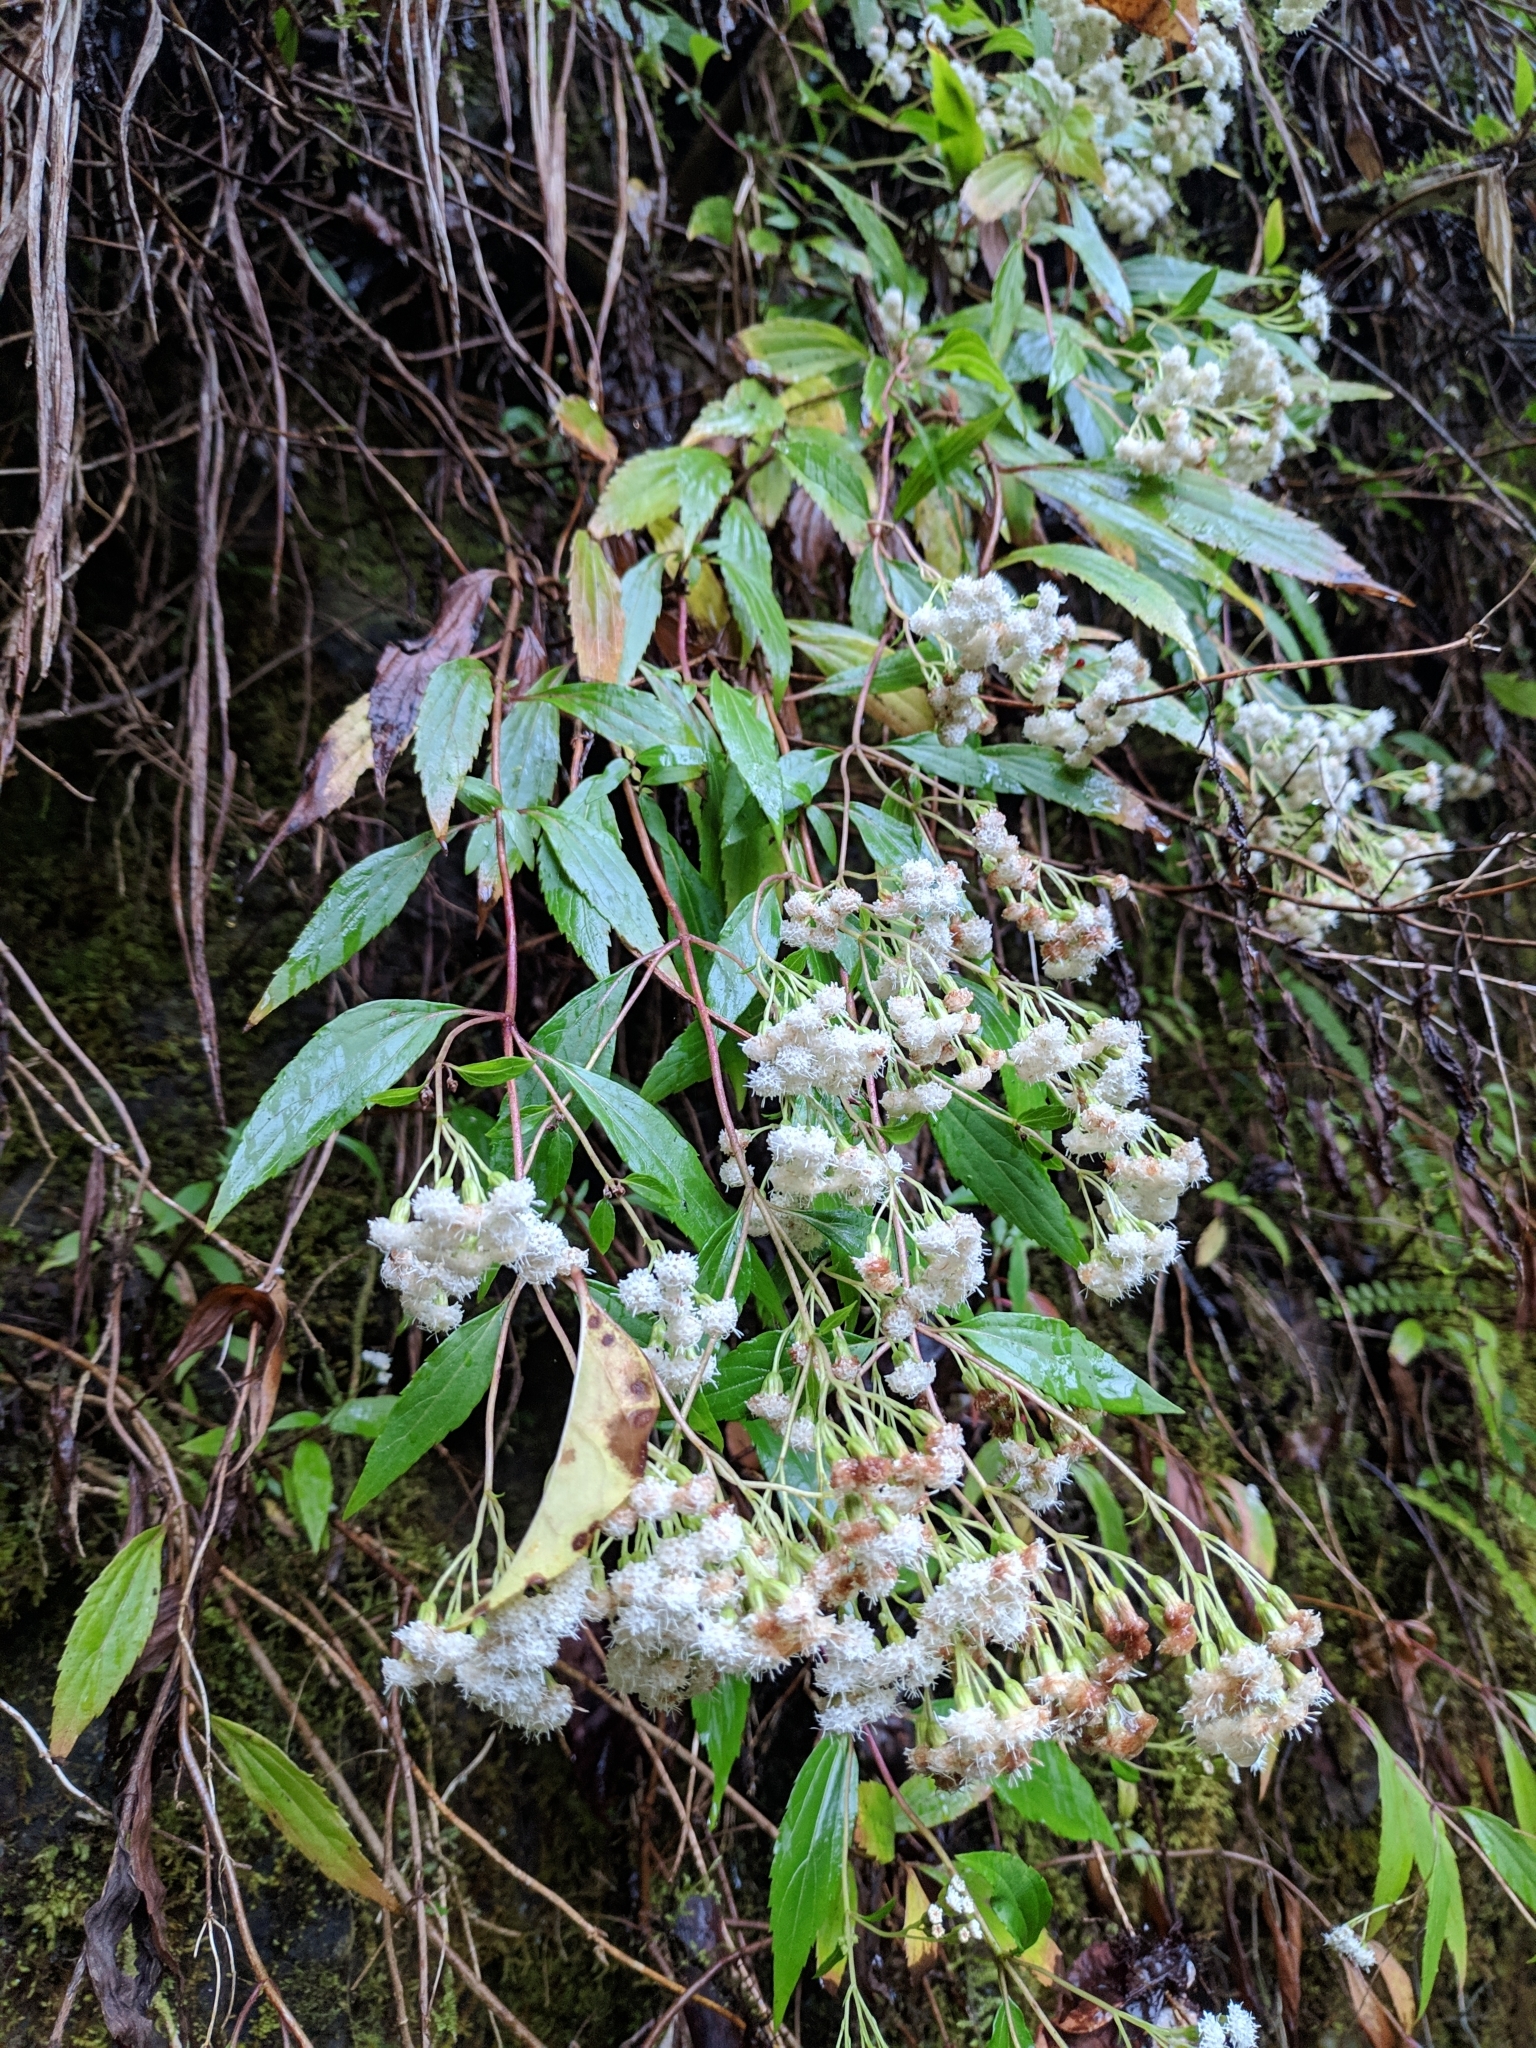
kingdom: Plantae
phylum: Tracheophyta
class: Magnoliopsida
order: Asterales
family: Asteraceae
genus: Ageratina
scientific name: Ageratina riparia
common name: Creeping croftonweed
